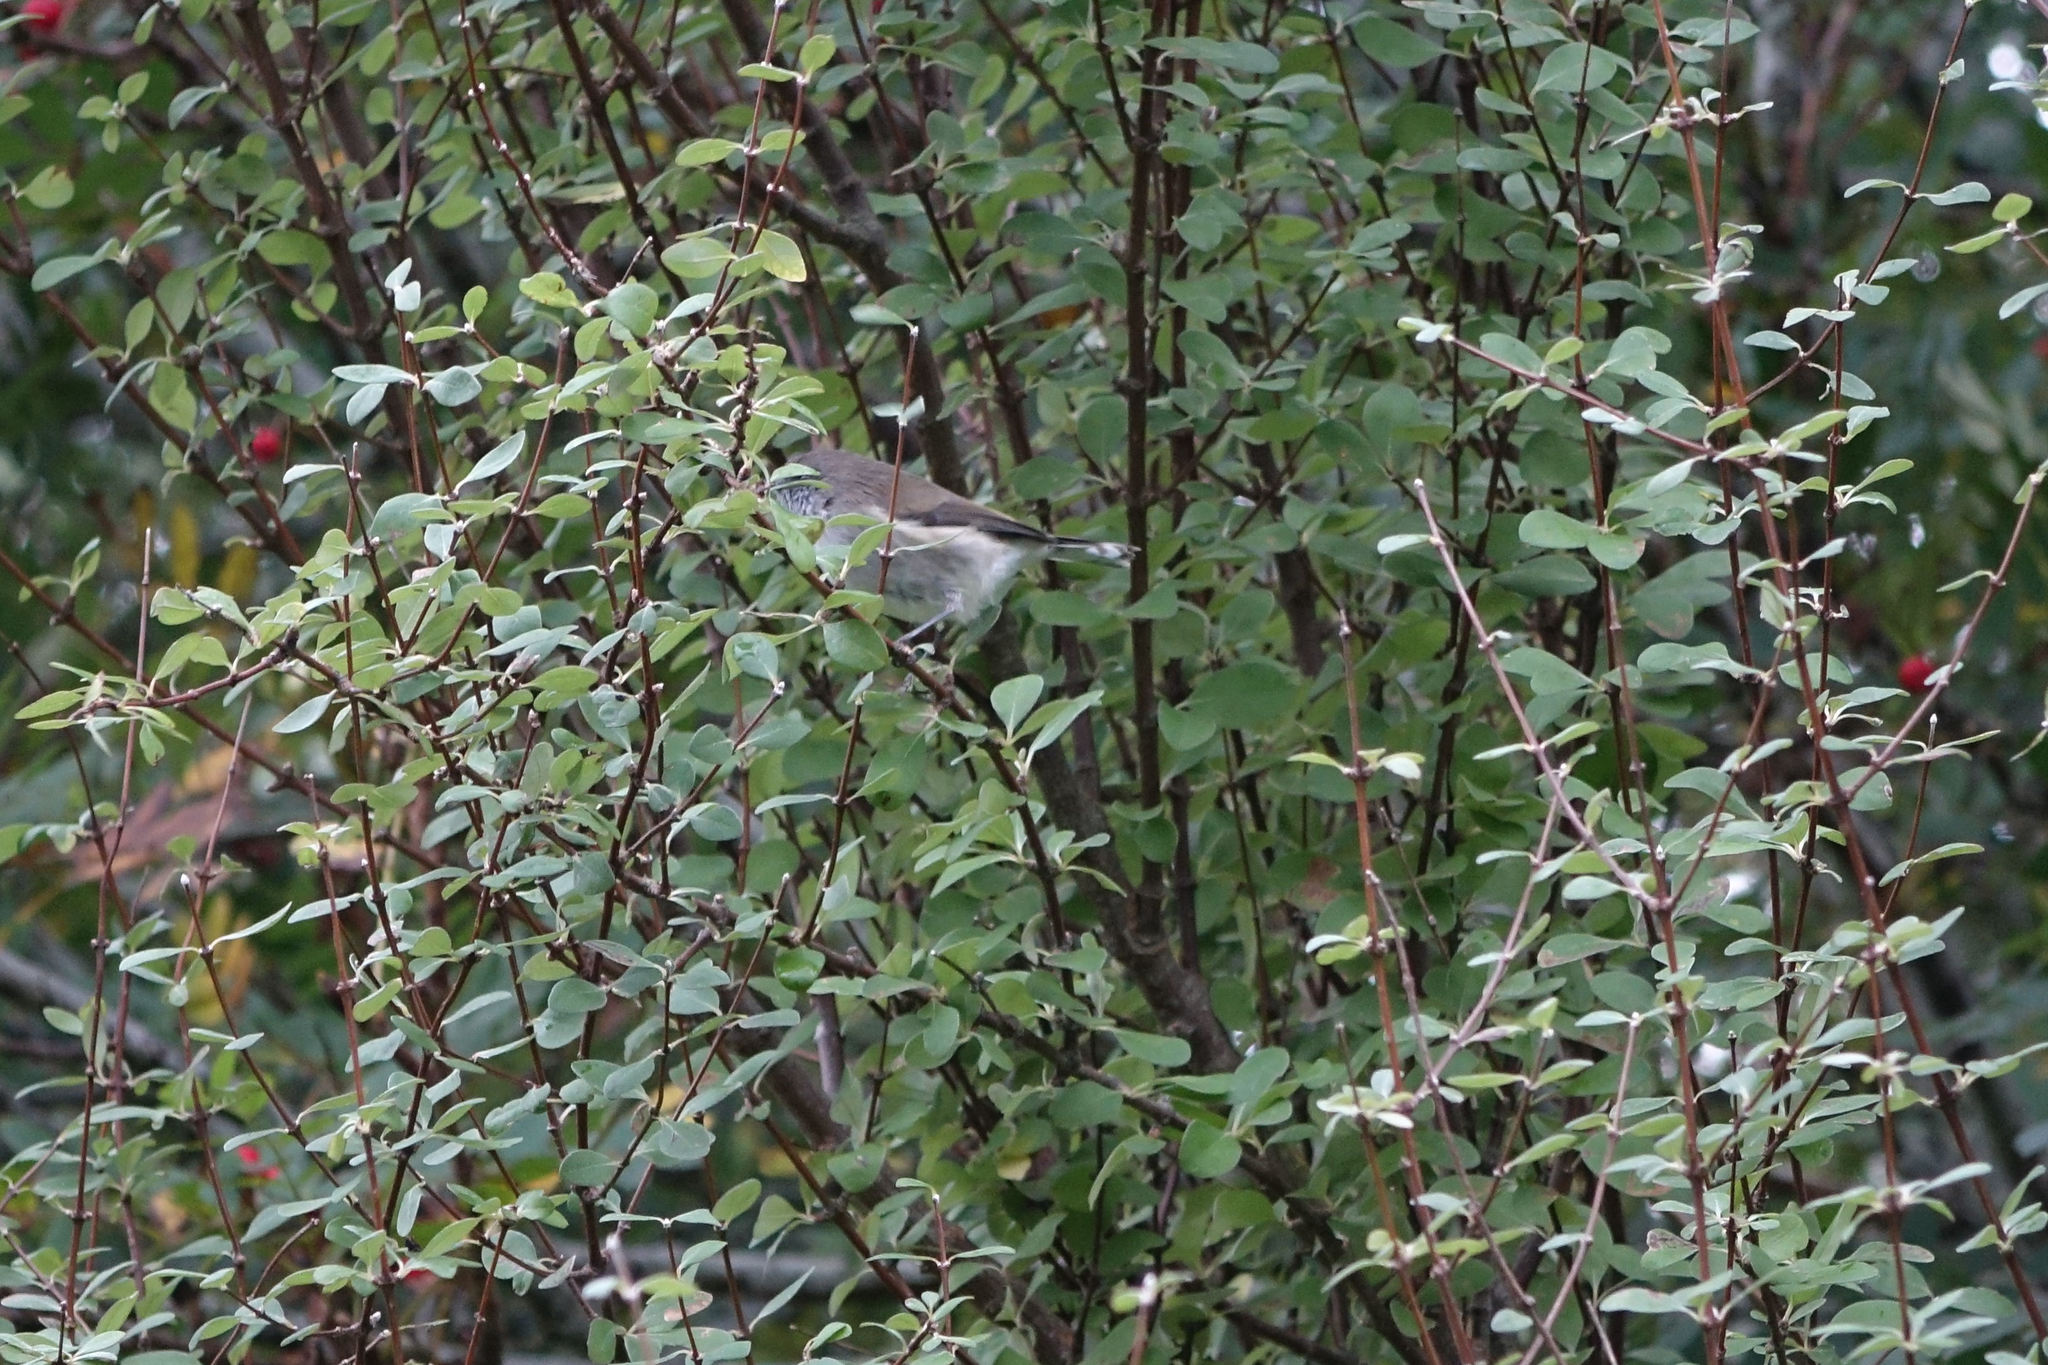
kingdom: Animalia
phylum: Chordata
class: Aves
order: Passeriformes
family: Acanthizidae
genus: Gerygone
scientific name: Gerygone igata
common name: Grey gerygone
